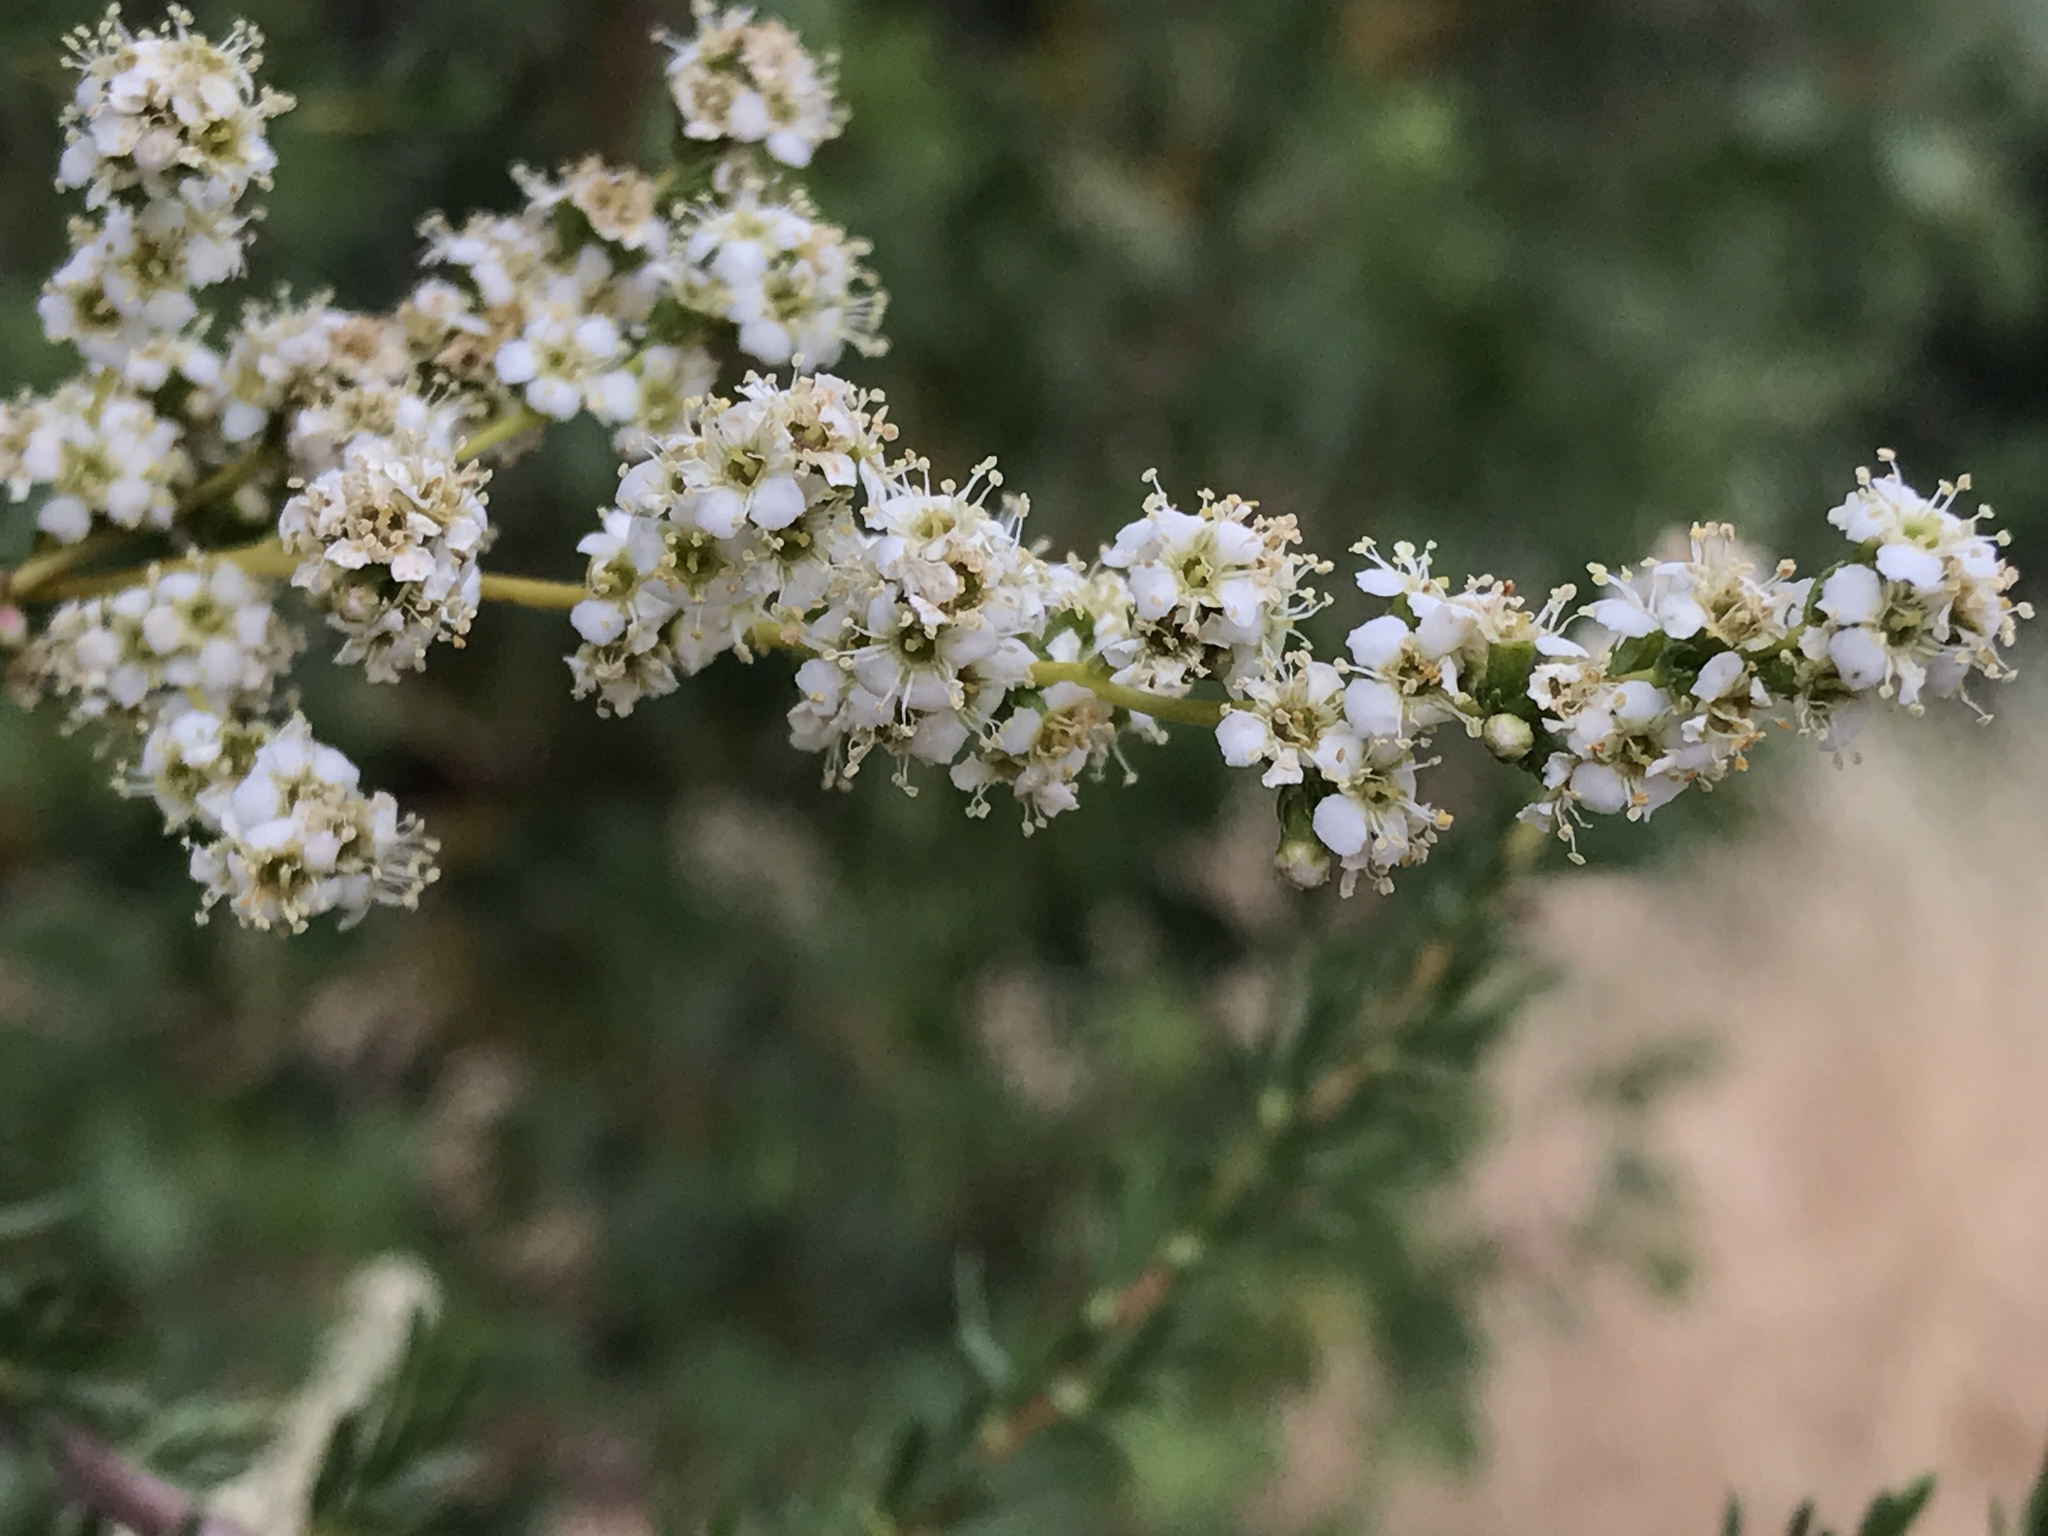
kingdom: Plantae
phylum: Tracheophyta
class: Magnoliopsida
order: Rosales
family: Rosaceae
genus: Adenostoma
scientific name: Adenostoma fasciculatum
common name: Chamise
